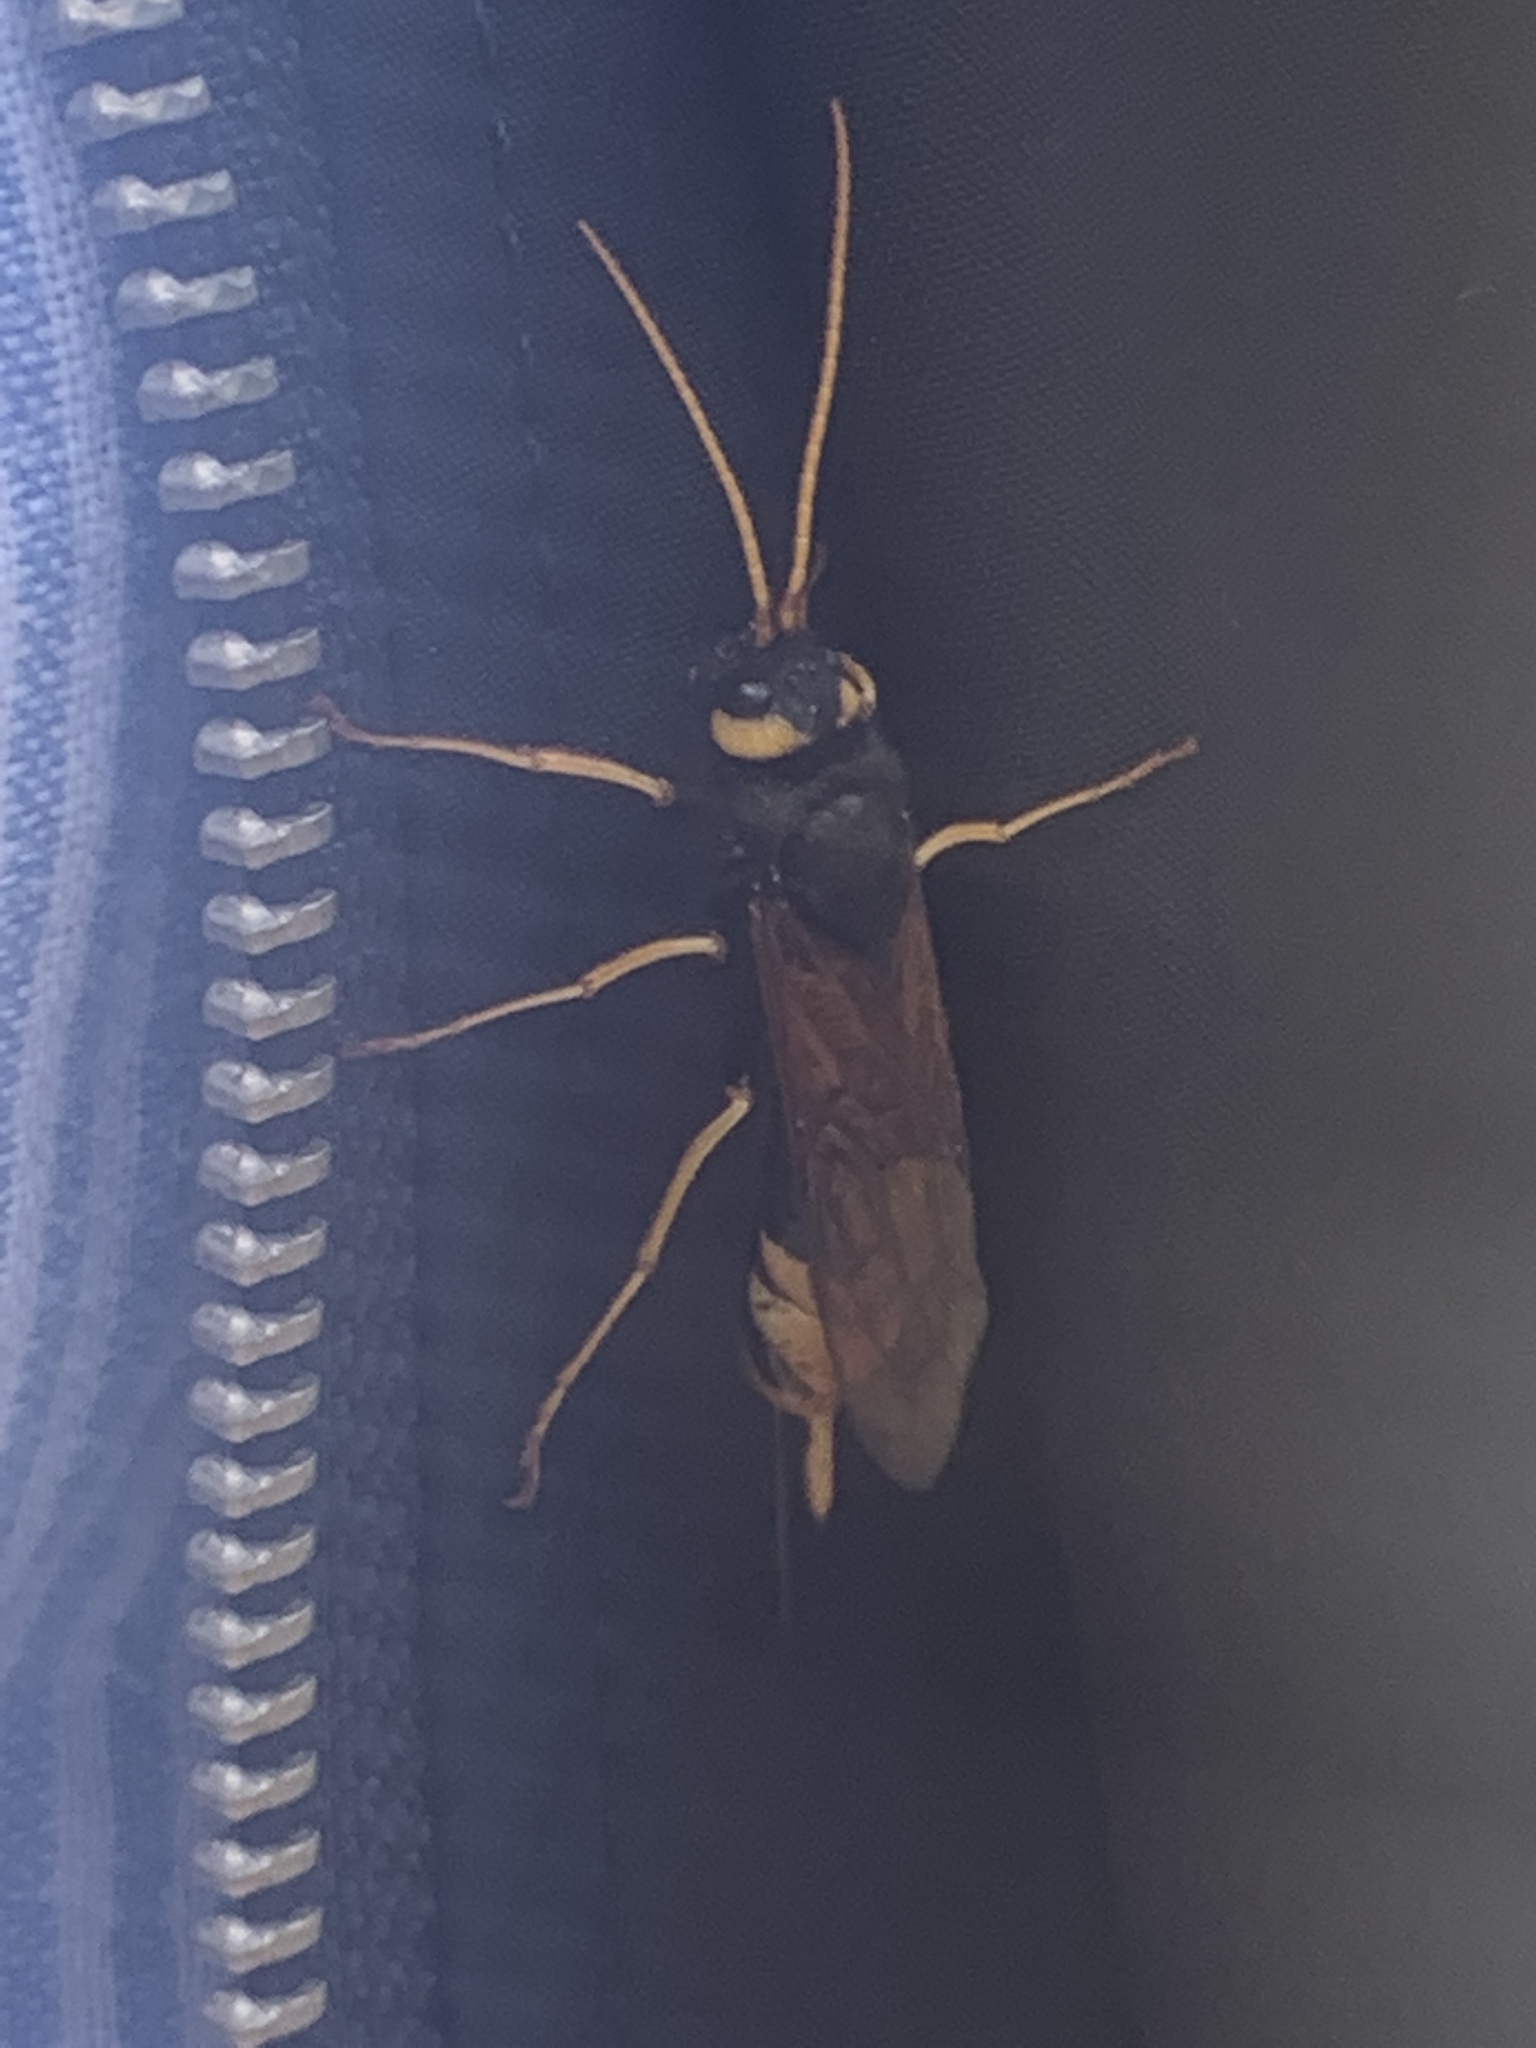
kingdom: Animalia
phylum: Arthropoda
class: Insecta
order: Hymenoptera
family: Siricidae
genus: Urocerus
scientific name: Urocerus gigas
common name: Giant woodwasp
